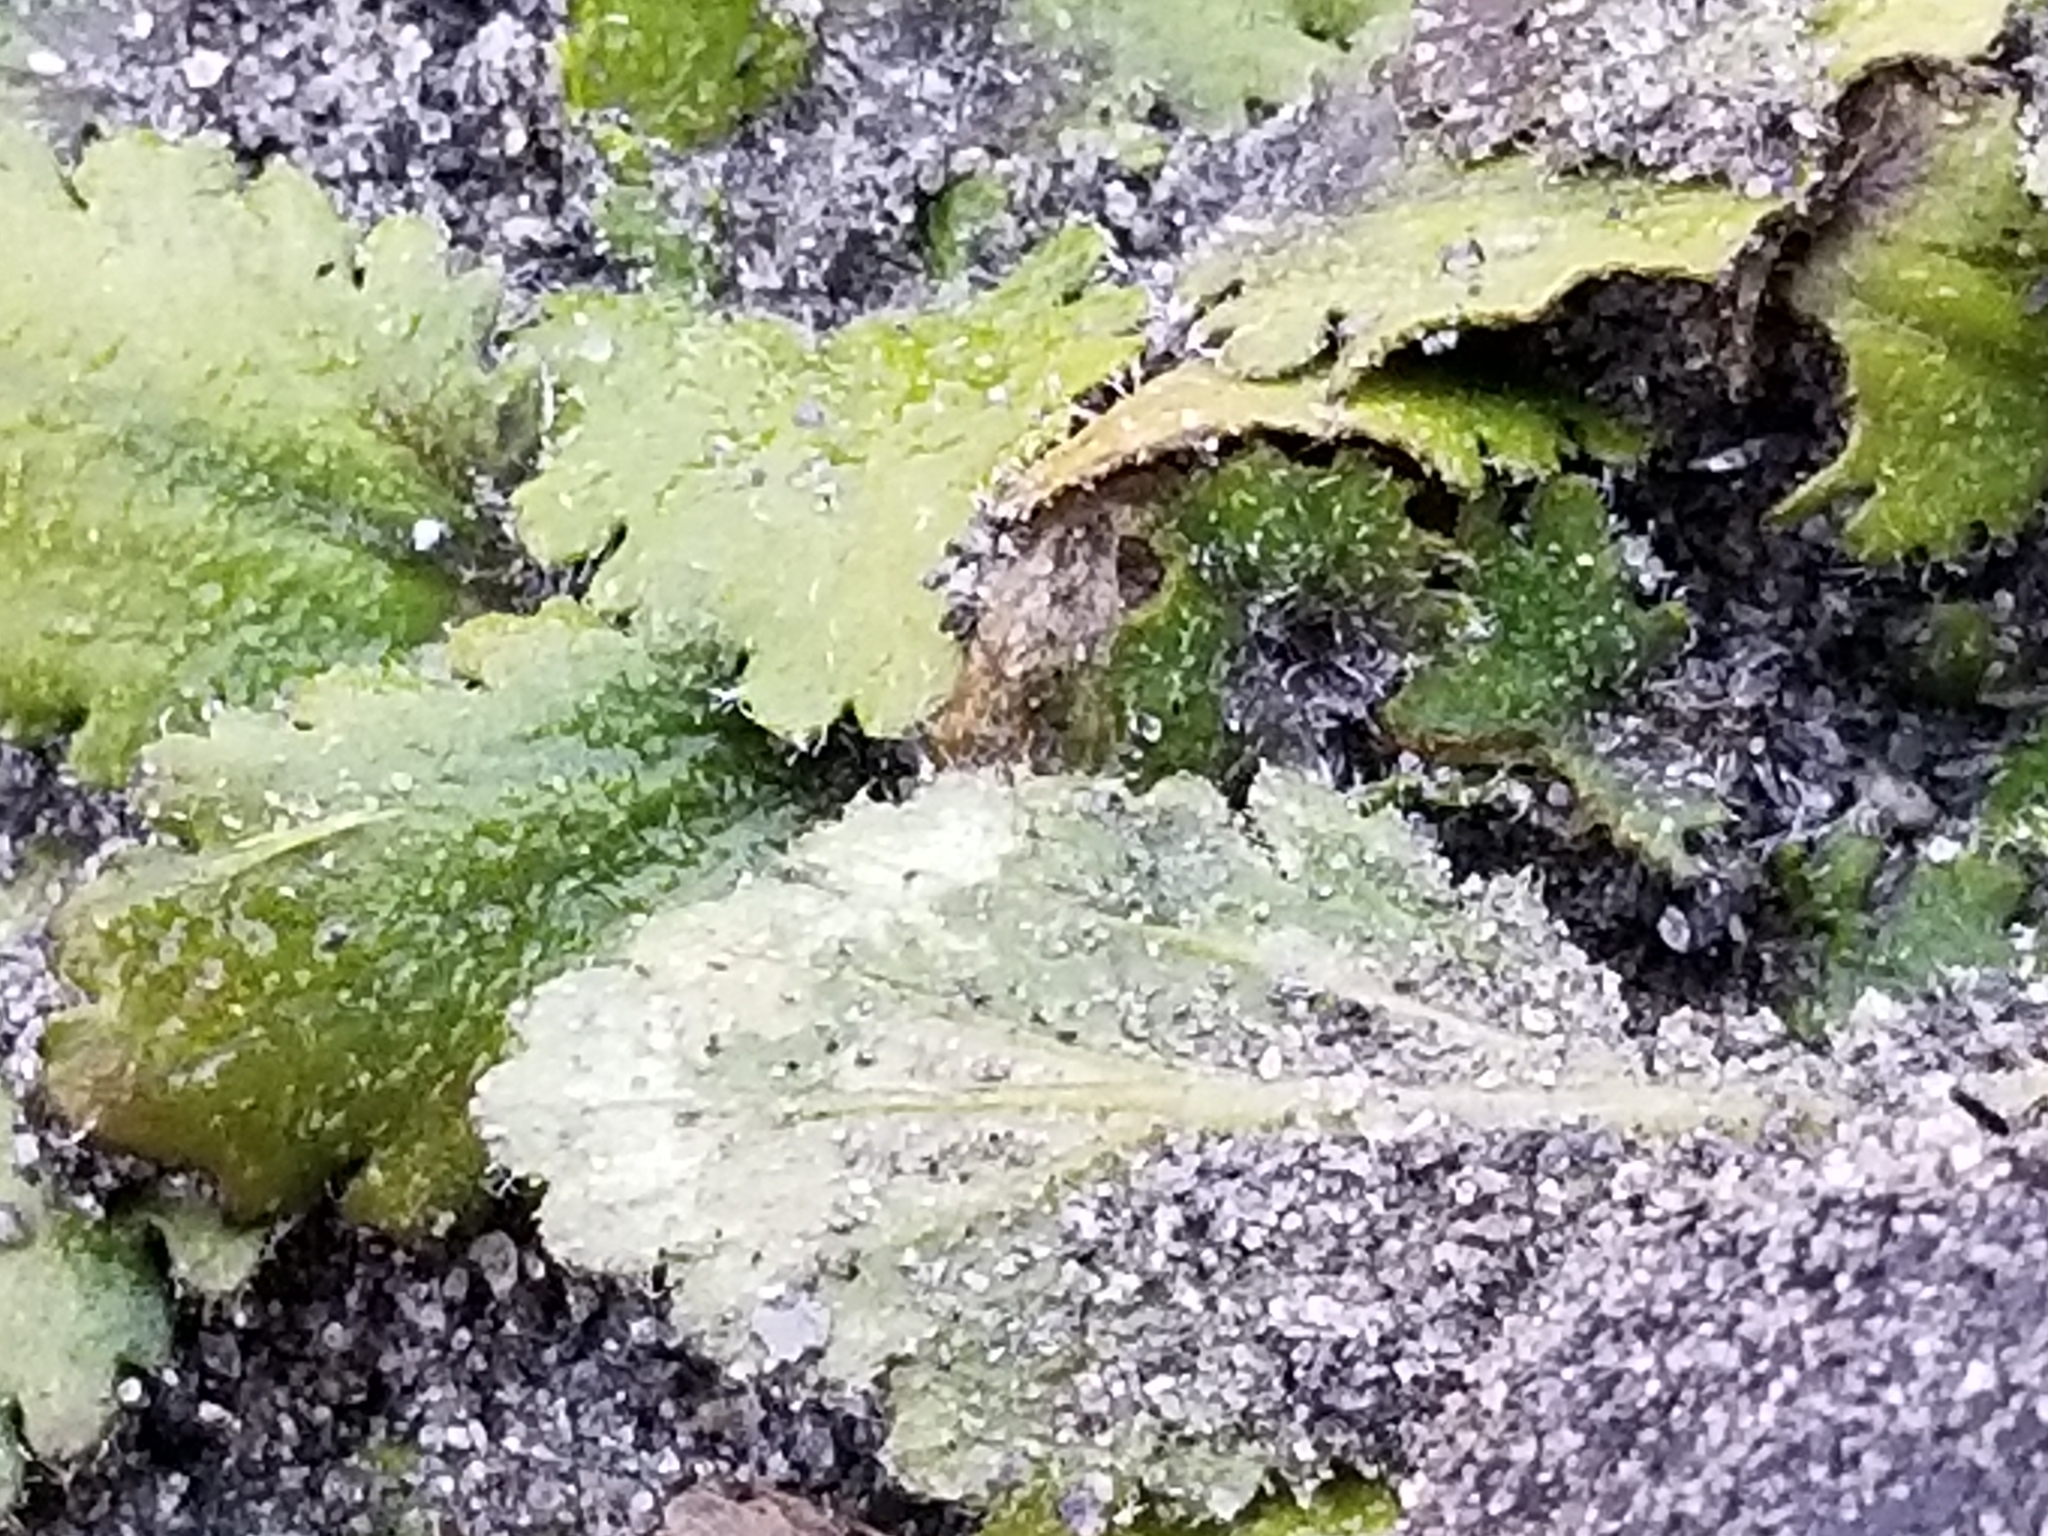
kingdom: Plantae
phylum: Tracheophyta
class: Magnoliopsida
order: Gunnerales
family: Gunneraceae
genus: Gunnera
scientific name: Gunnera dentata
